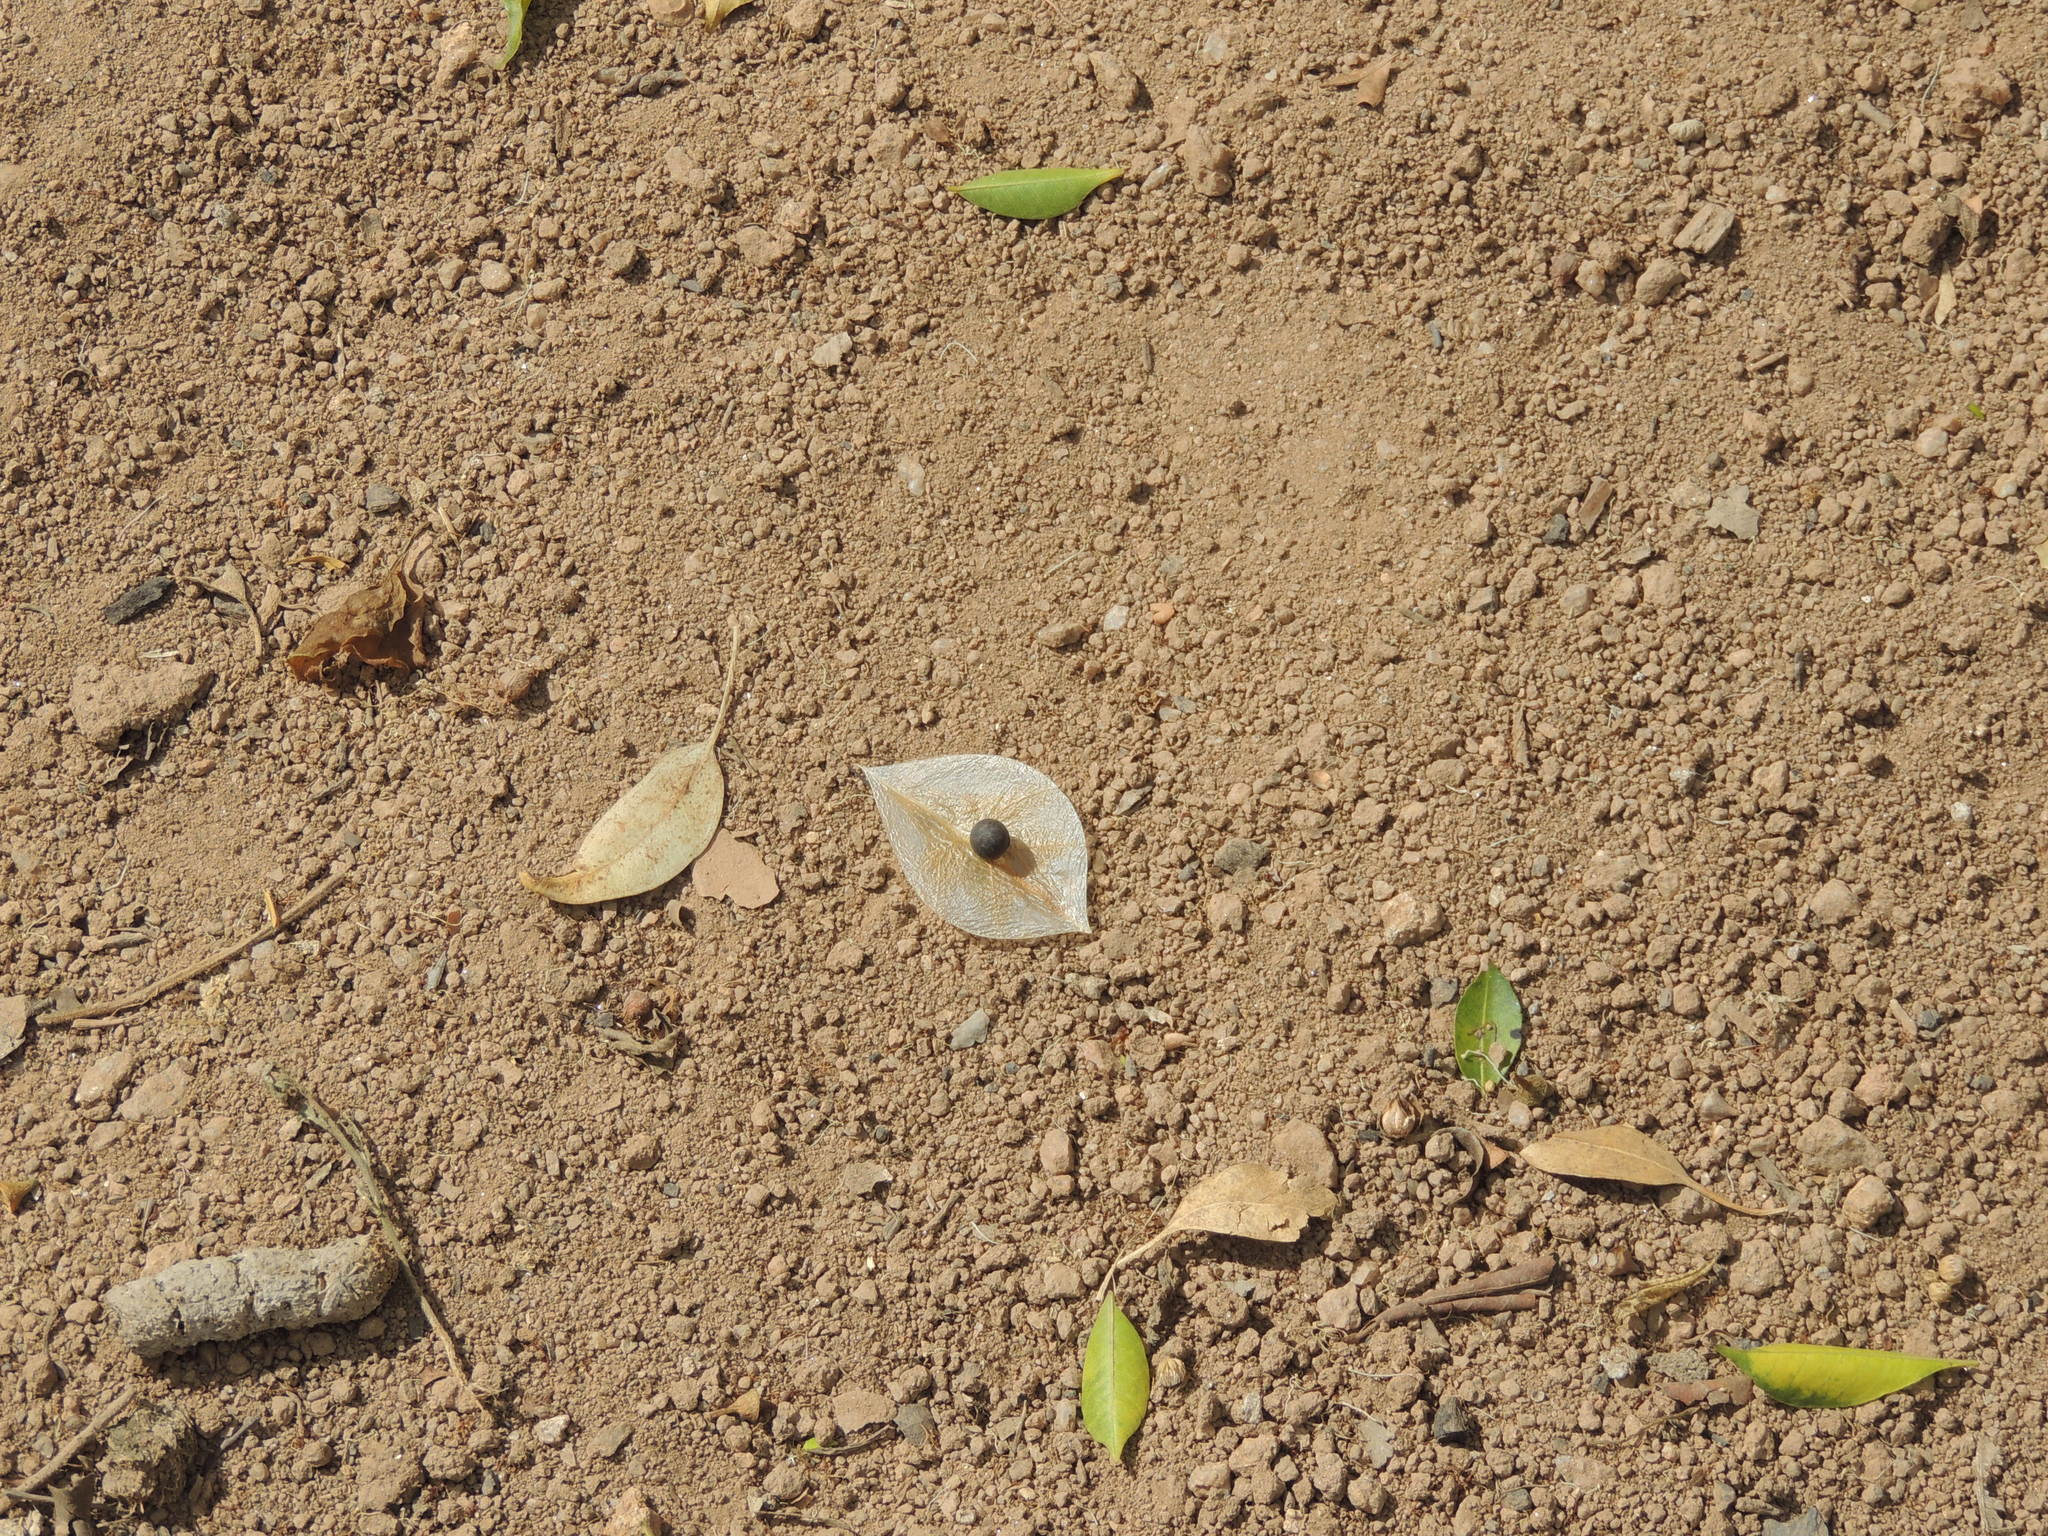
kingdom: Plantae
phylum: Tracheophyta
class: Magnoliopsida
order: Sapindales
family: Sapindaceae
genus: Cardiospermum
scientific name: Cardiospermum halicacabum
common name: Balloon vine
